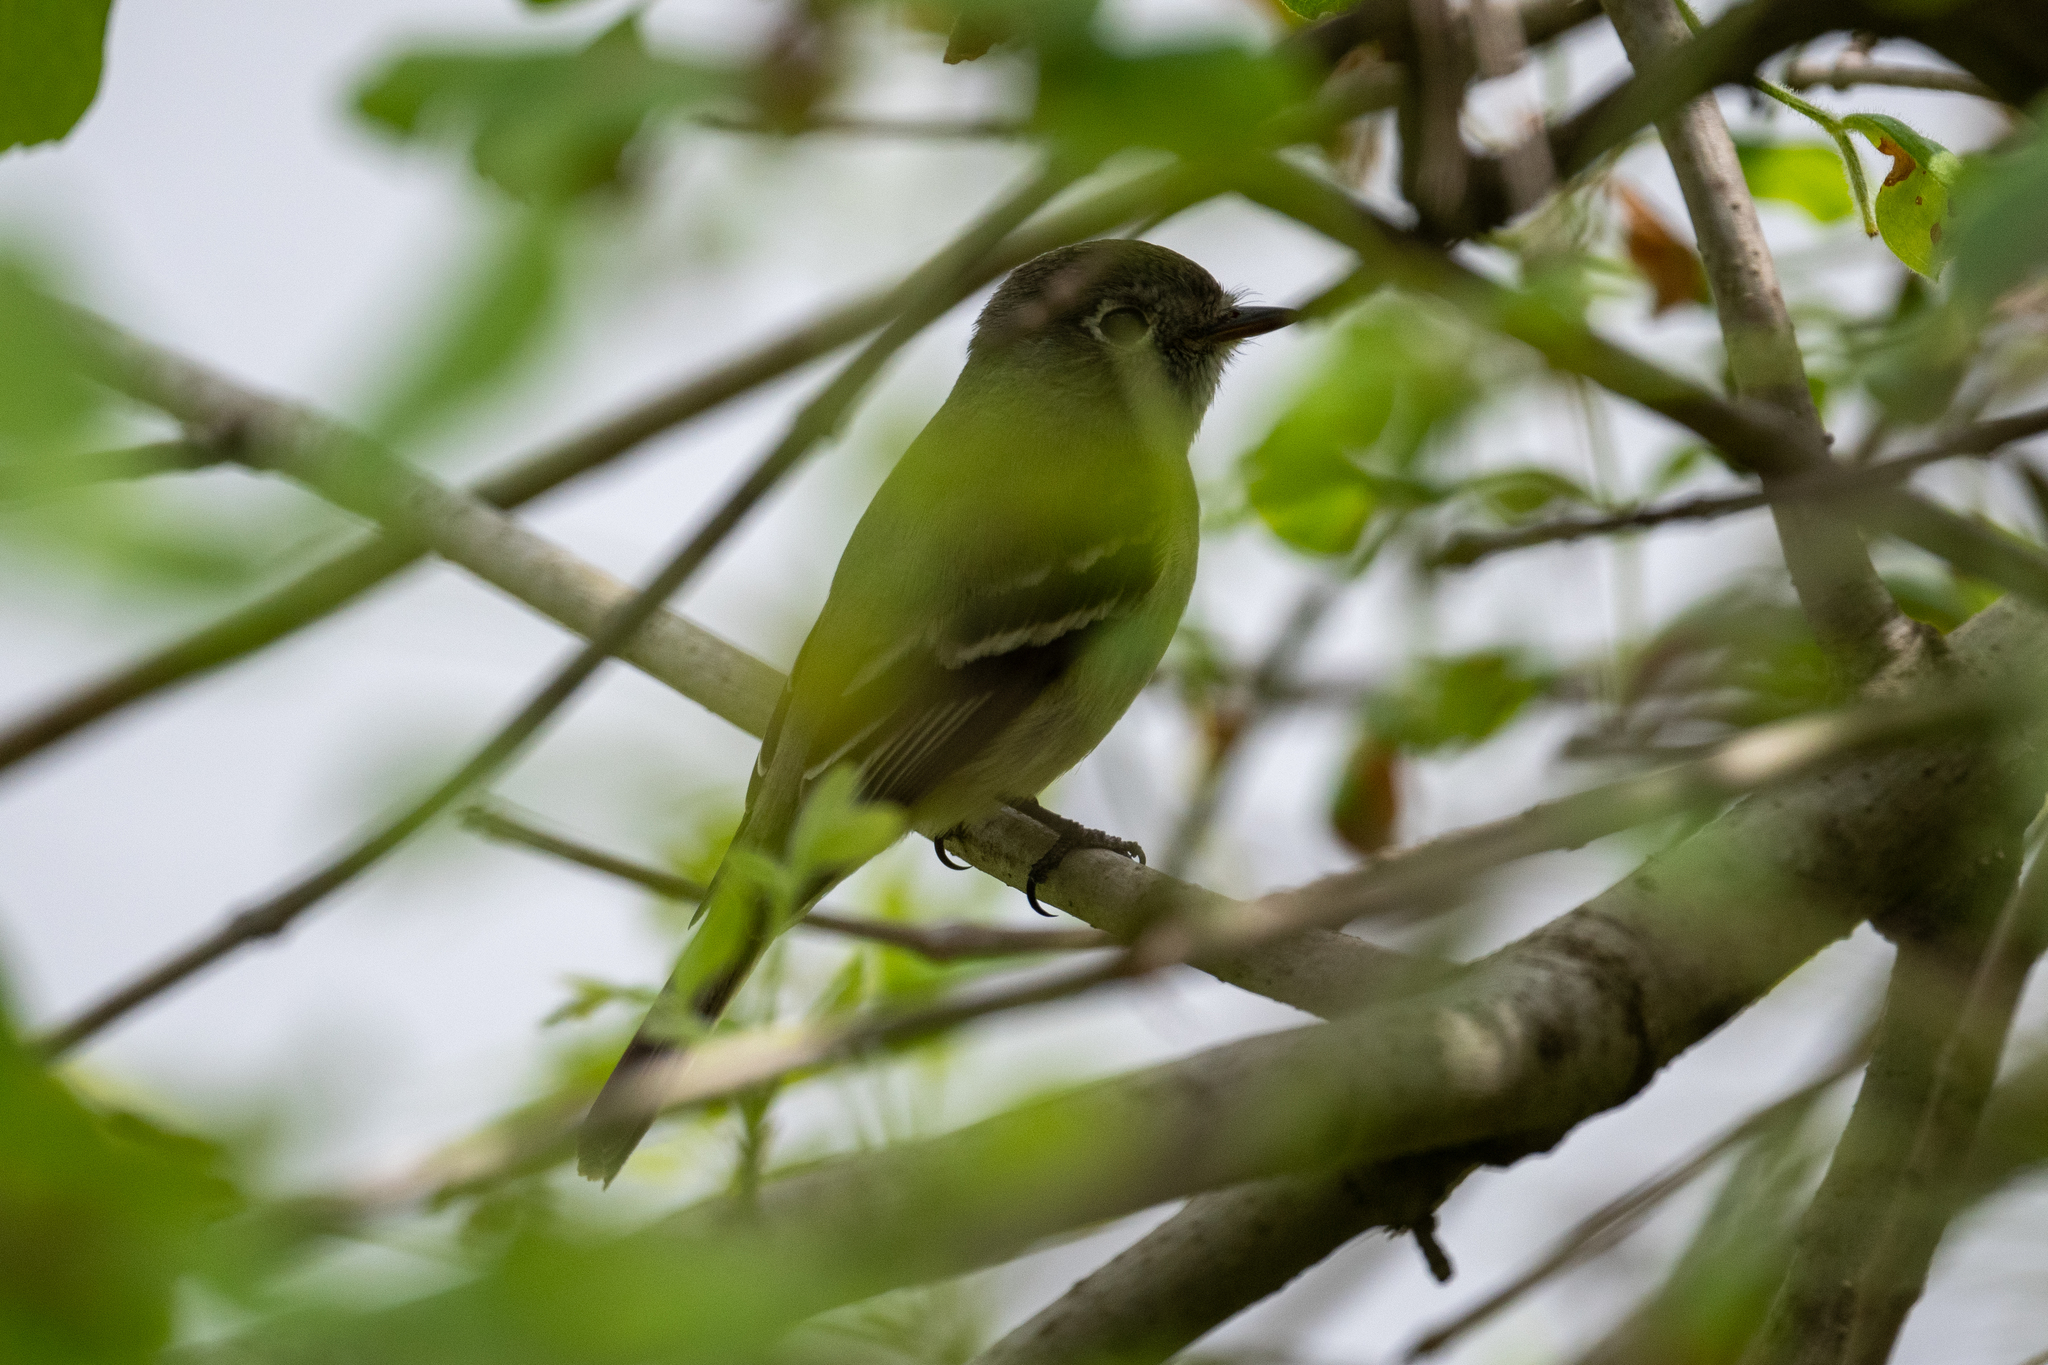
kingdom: Animalia
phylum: Chordata
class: Aves
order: Passeriformes
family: Tyrannidae
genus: Empidonax
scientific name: Empidonax hammondii
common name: Hammond's flycatcher
